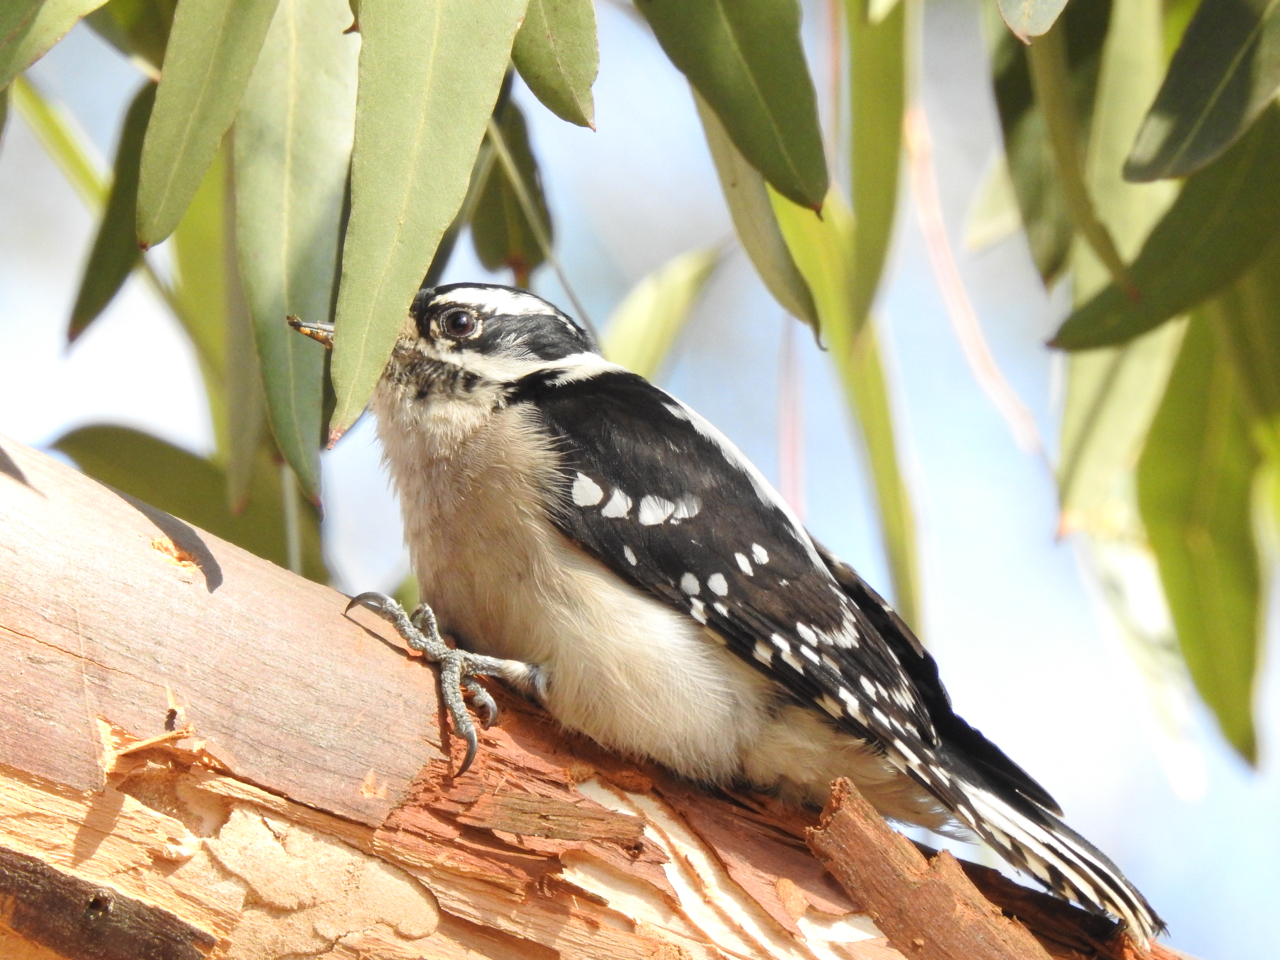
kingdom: Animalia
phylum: Chordata
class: Aves
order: Piciformes
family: Picidae
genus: Dryobates
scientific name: Dryobates pubescens
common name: Downy woodpecker
